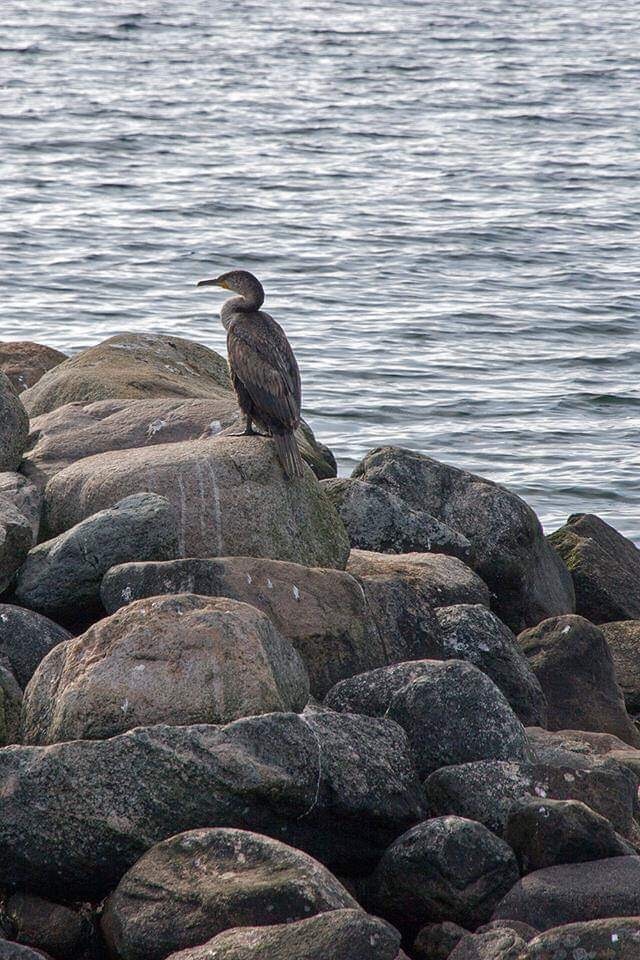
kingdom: Animalia
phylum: Chordata
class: Aves
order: Suliformes
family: Phalacrocoracidae
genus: Phalacrocorax
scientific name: Phalacrocorax carbo
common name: Great cormorant
